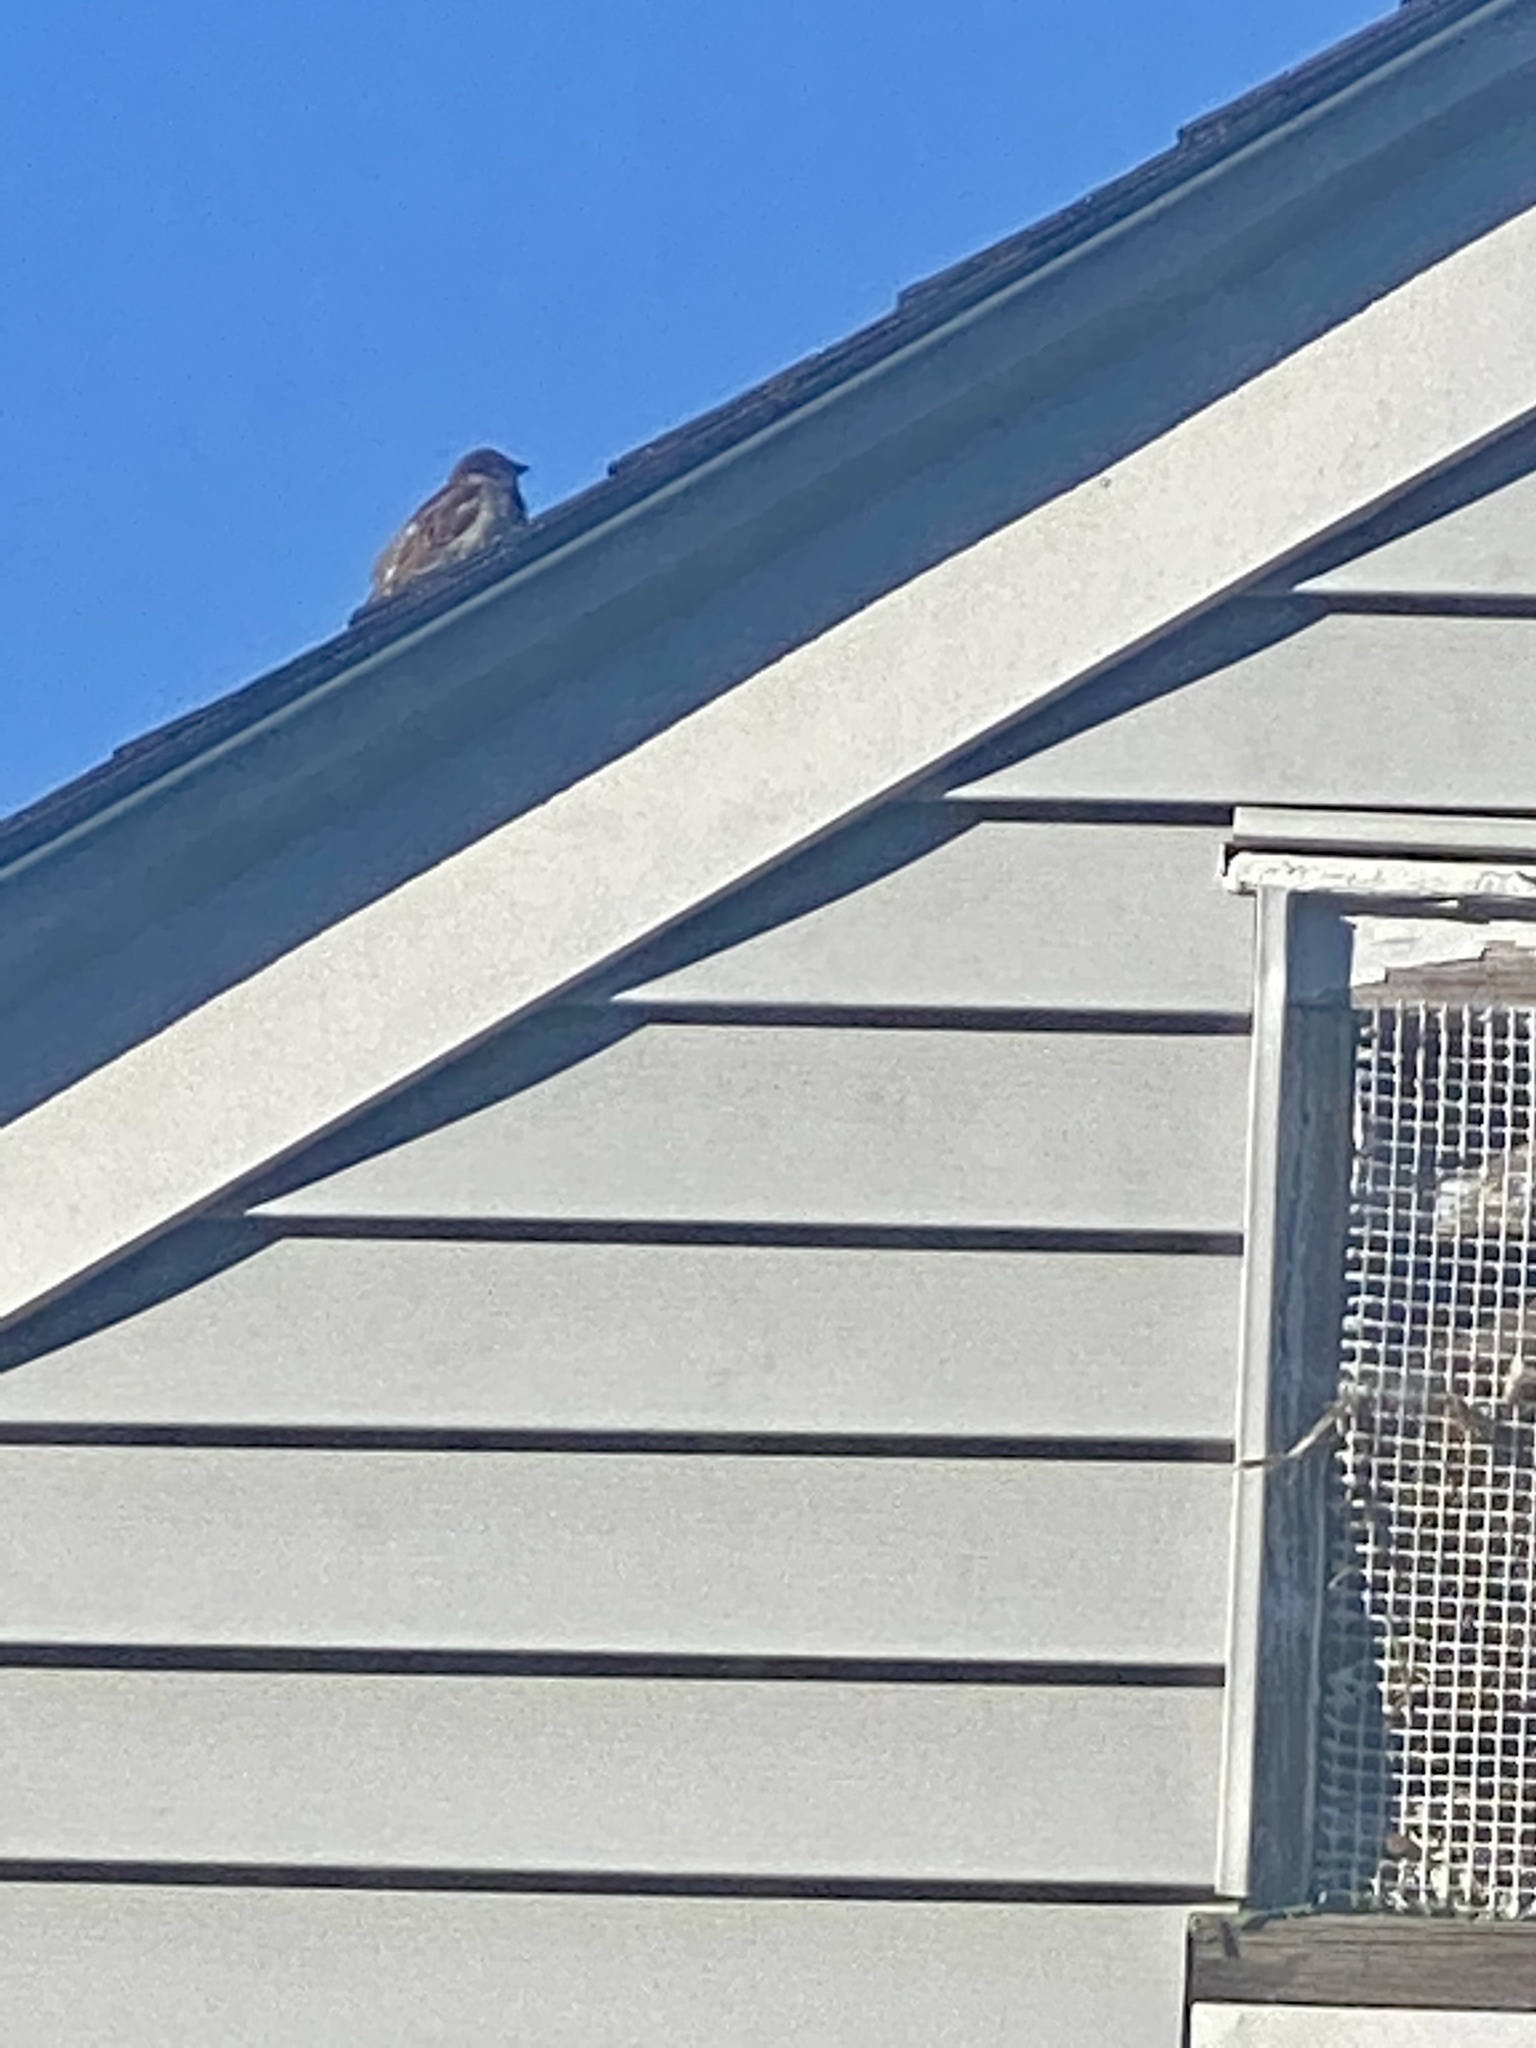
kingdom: Animalia
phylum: Chordata
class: Aves
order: Passeriformes
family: Passeridae
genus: Passer
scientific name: Passer domesticus
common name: House sparrow
